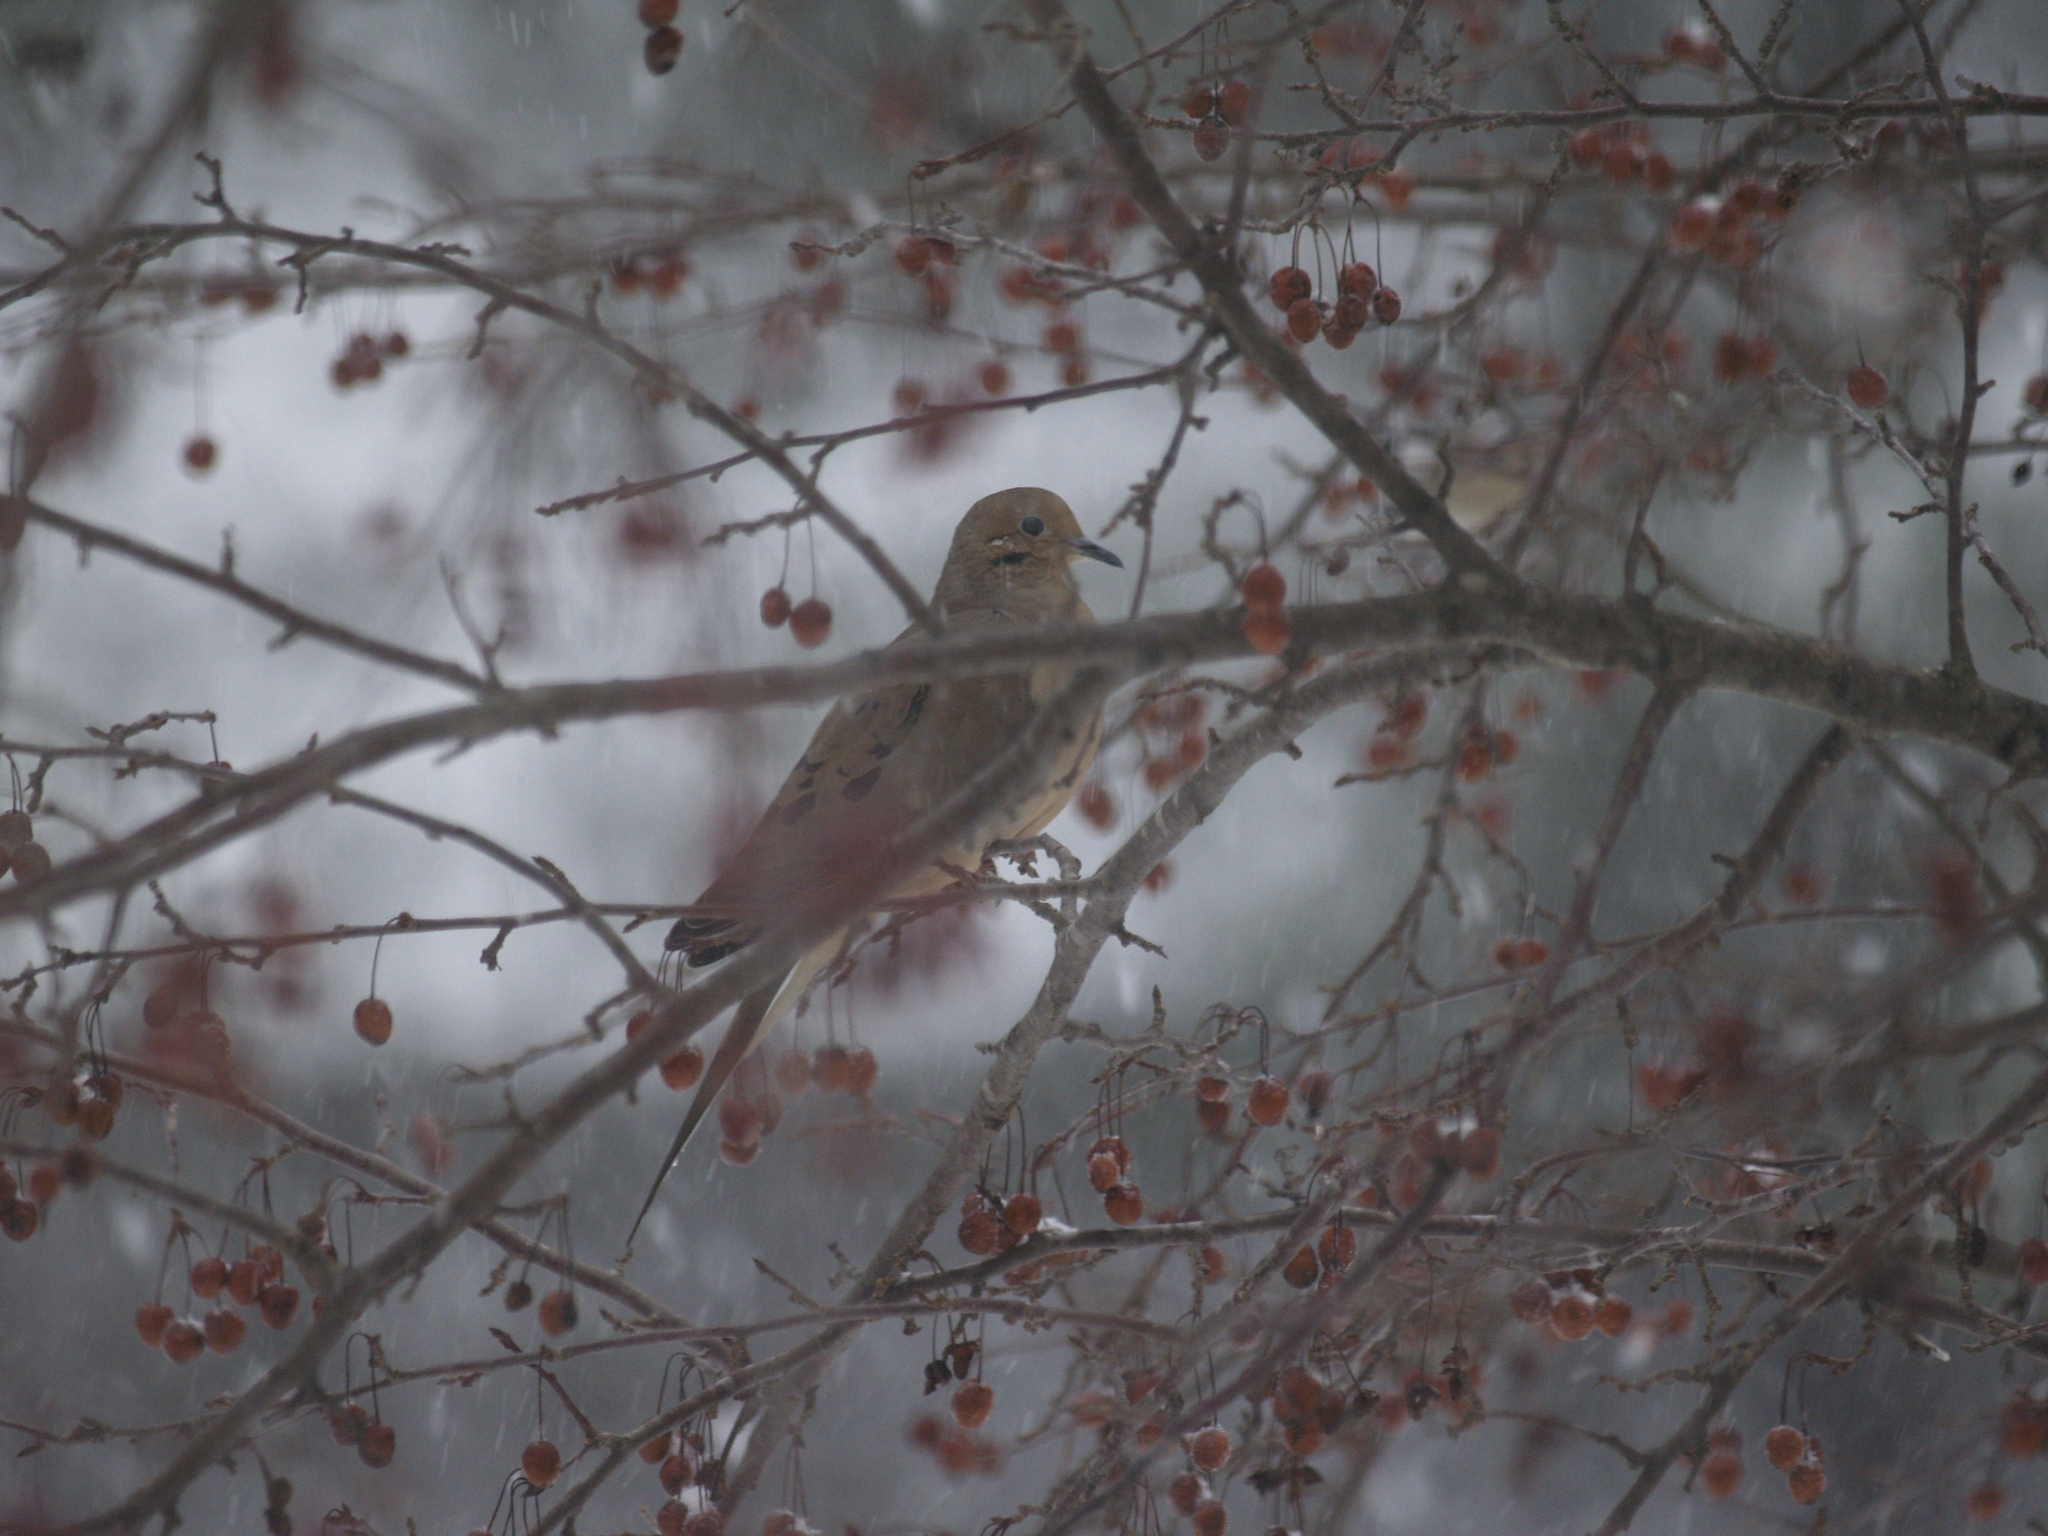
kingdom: Animalia
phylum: Chordata
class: Aves
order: Columbiformes
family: Columbidae
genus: Zenaida
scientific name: Zenaida macroura
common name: Mourning dove
